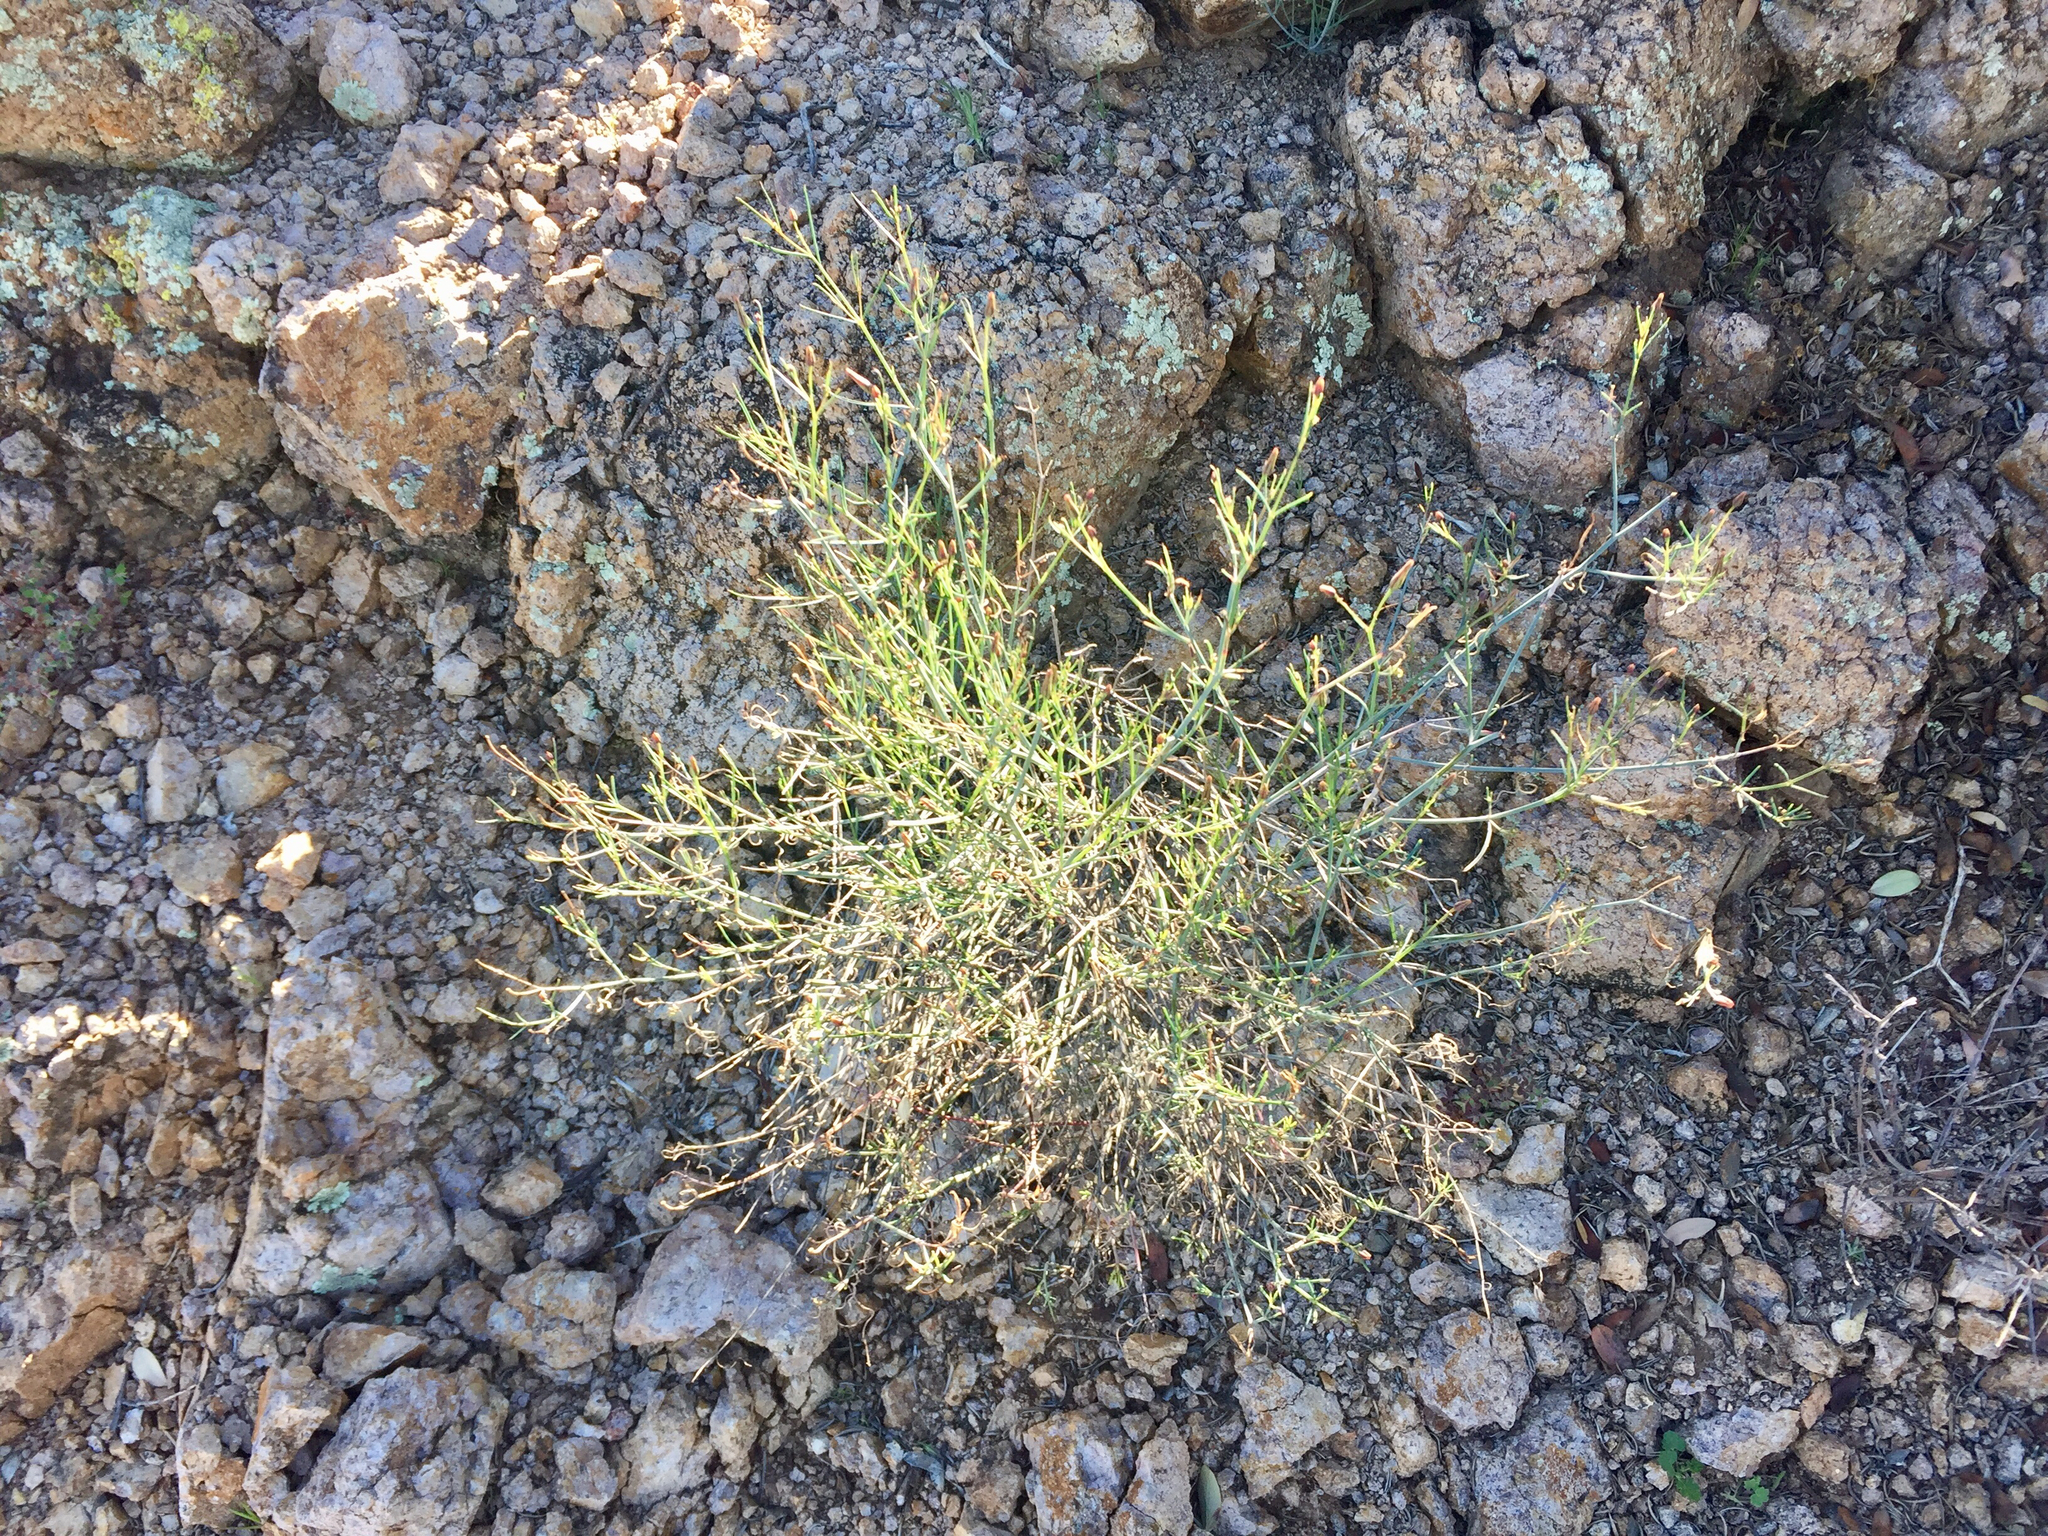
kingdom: Plantae
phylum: Tracheophyta
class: Magnoliopsida
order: Asterales
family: Asteraceae
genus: Porophyllum
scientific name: Porophyllum gracile
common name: Odora
